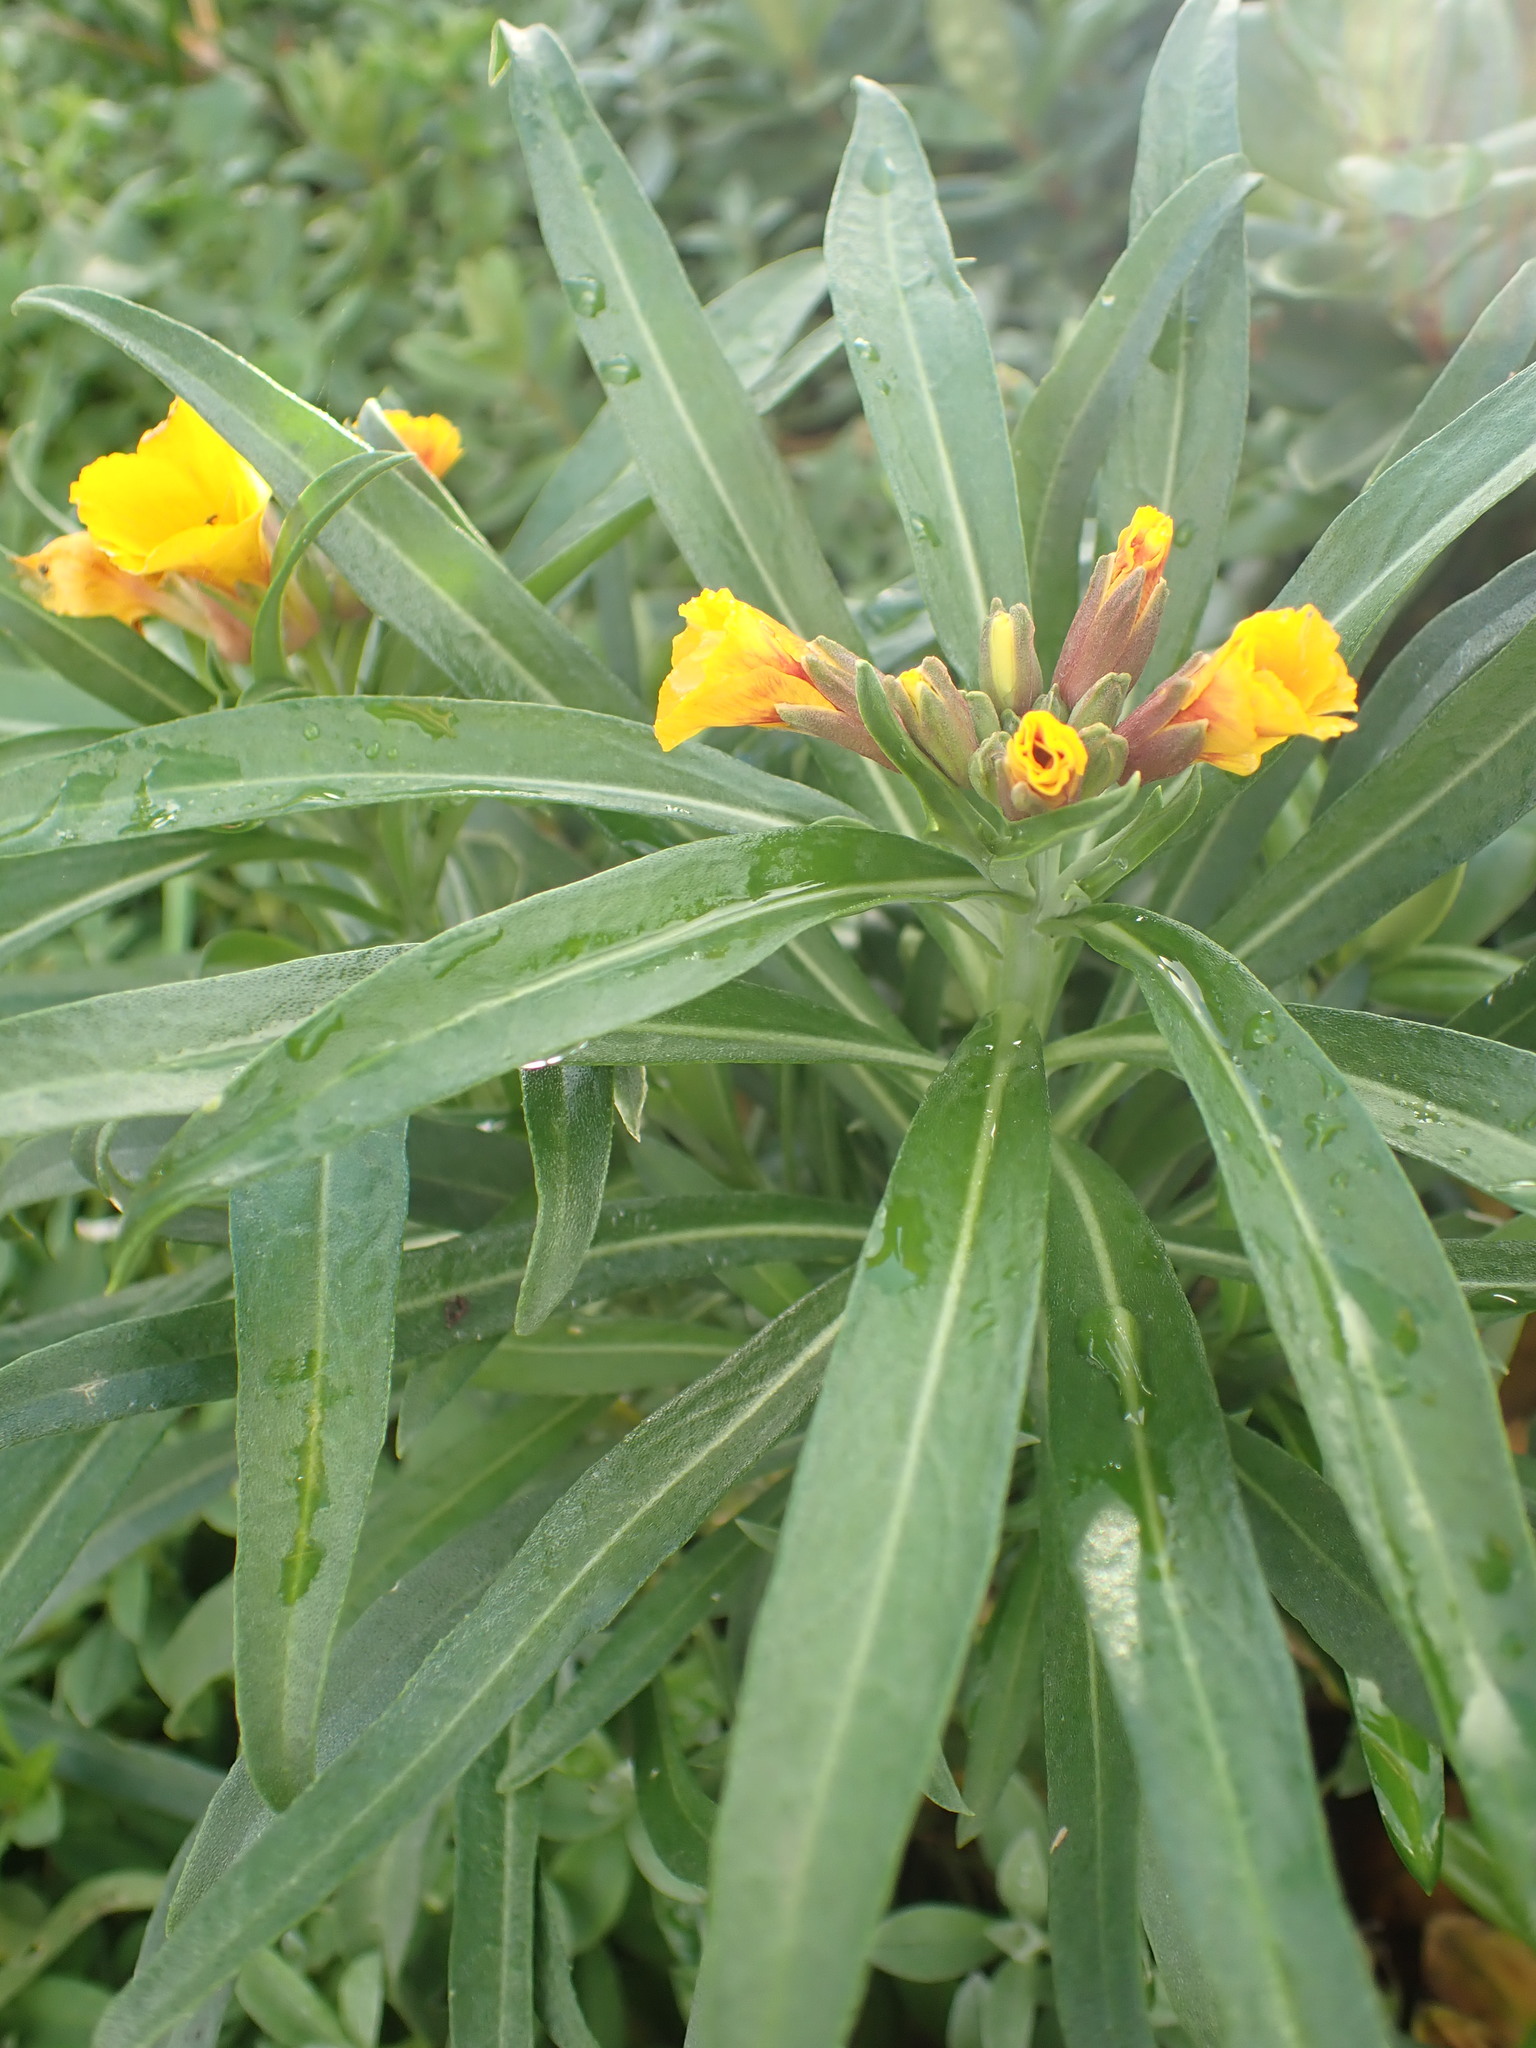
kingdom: Plantae
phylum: Tracheophyta
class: Magnoliopsida
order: Brassicales
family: Brassicaceae
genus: Erysimum
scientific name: Erysimum cheiri
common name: Wallflower
